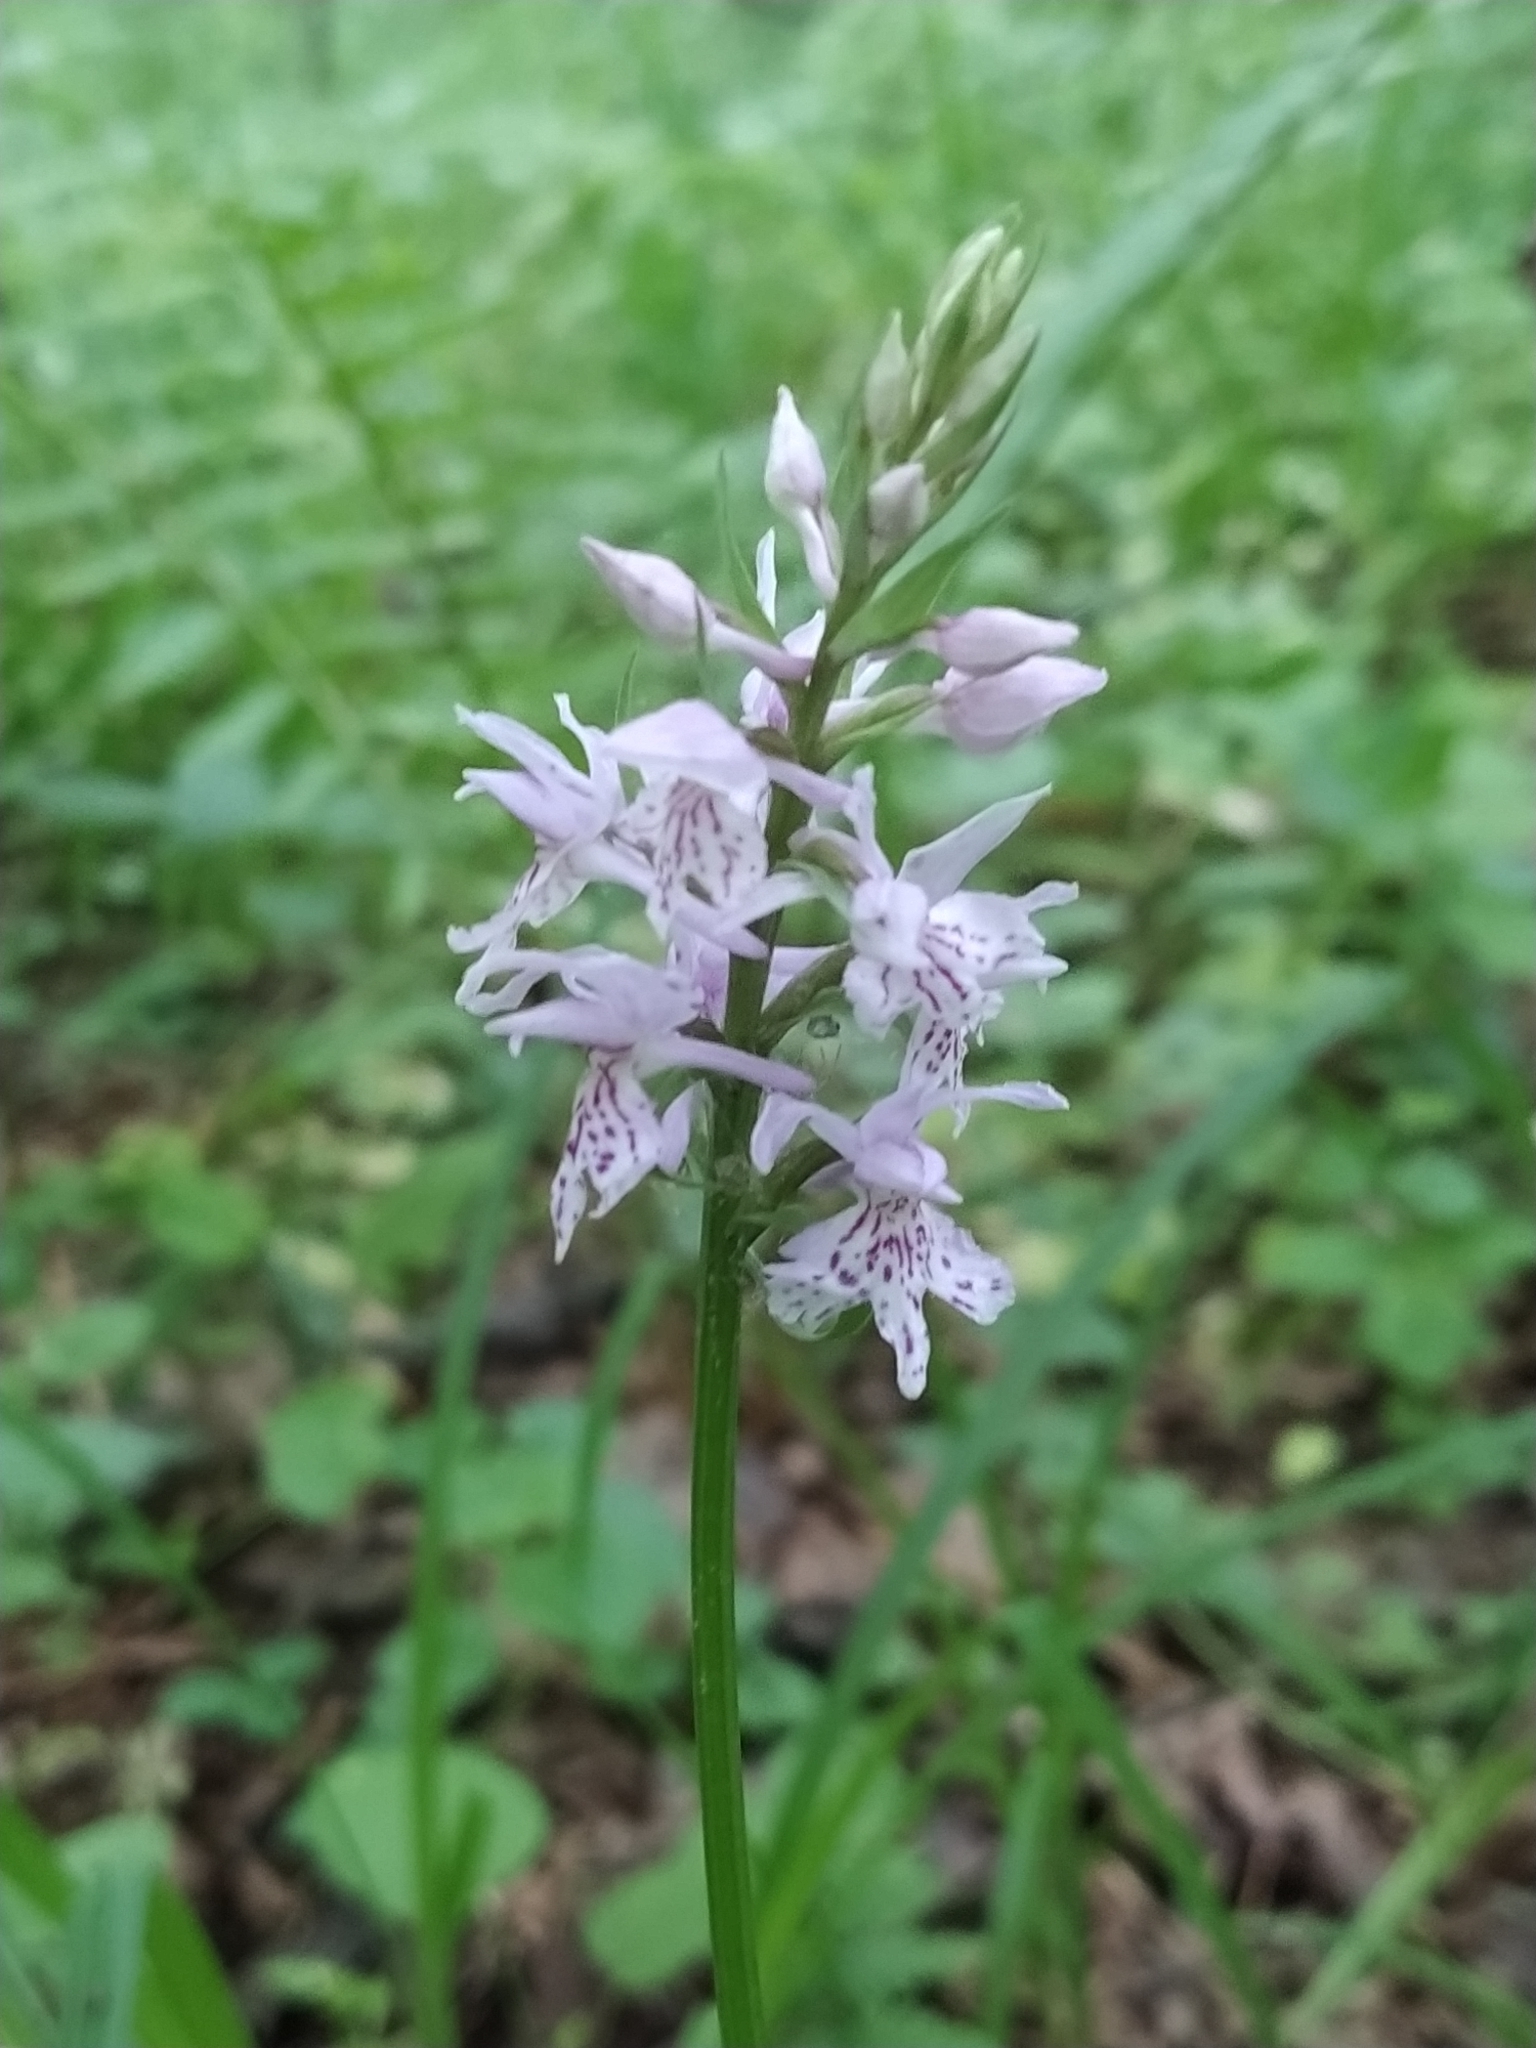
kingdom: Plantae
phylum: Tracheophyta
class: Liliopsida
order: Asparagales
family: Orchidaceae
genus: Dactylorhiza
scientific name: Dactylorhiza maculata
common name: Heath spotted-orchid
